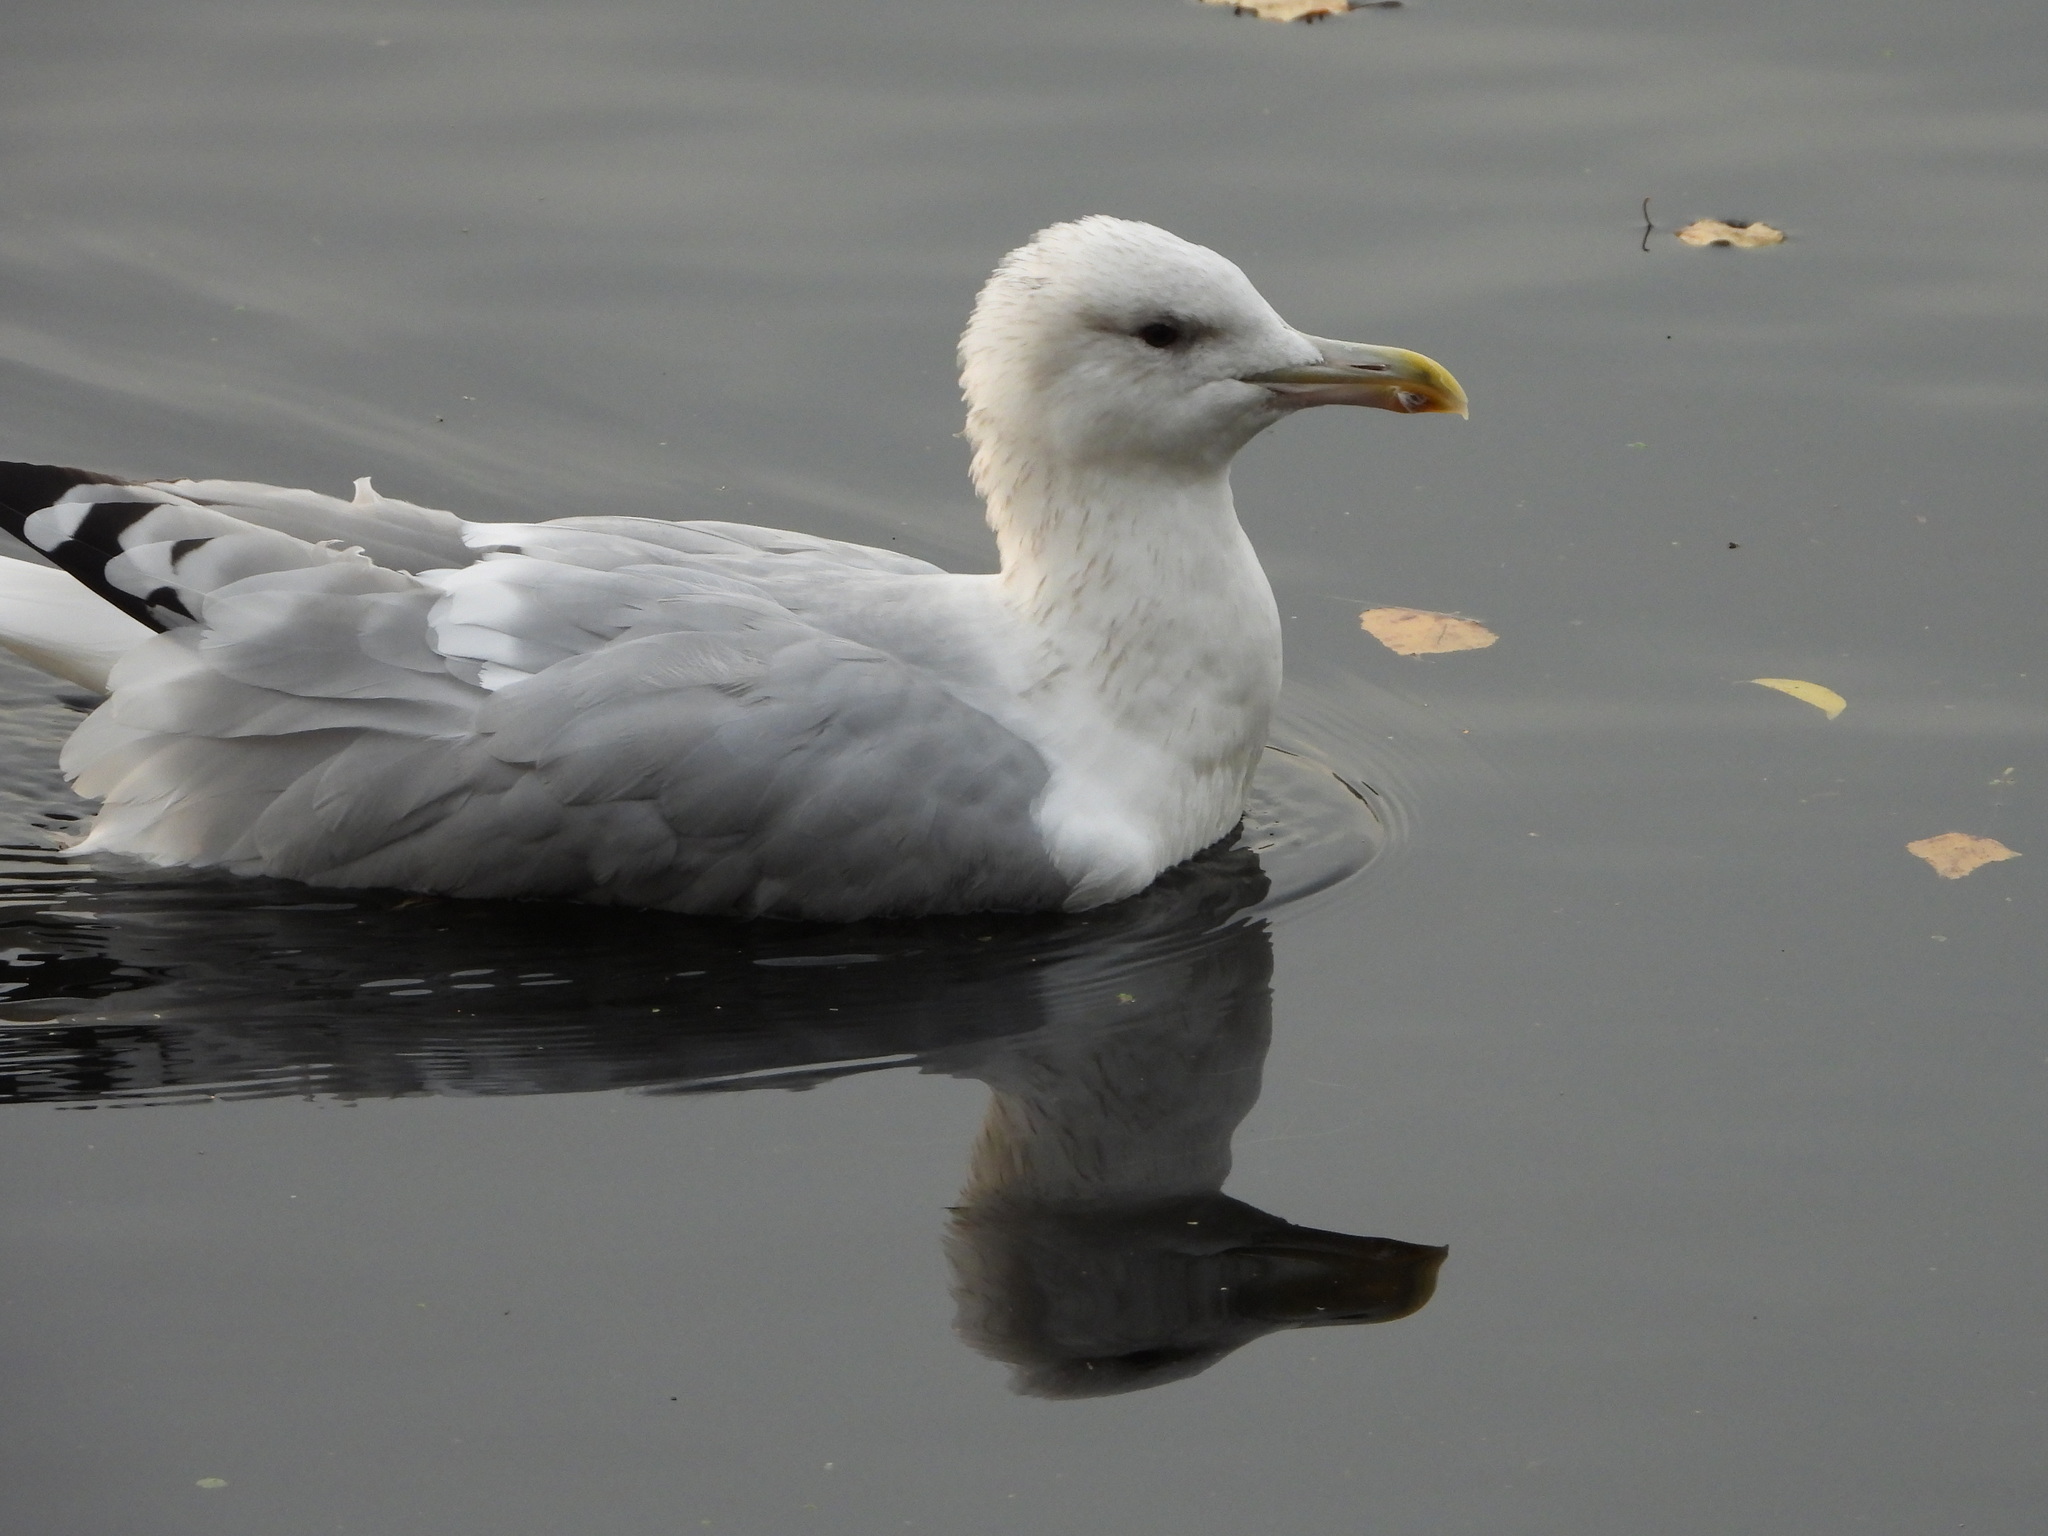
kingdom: Animalia
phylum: Chordata
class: Aves
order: Charadriiformes
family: Laridae
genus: Larus
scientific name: Larus cachinnans
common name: Caspian gull
